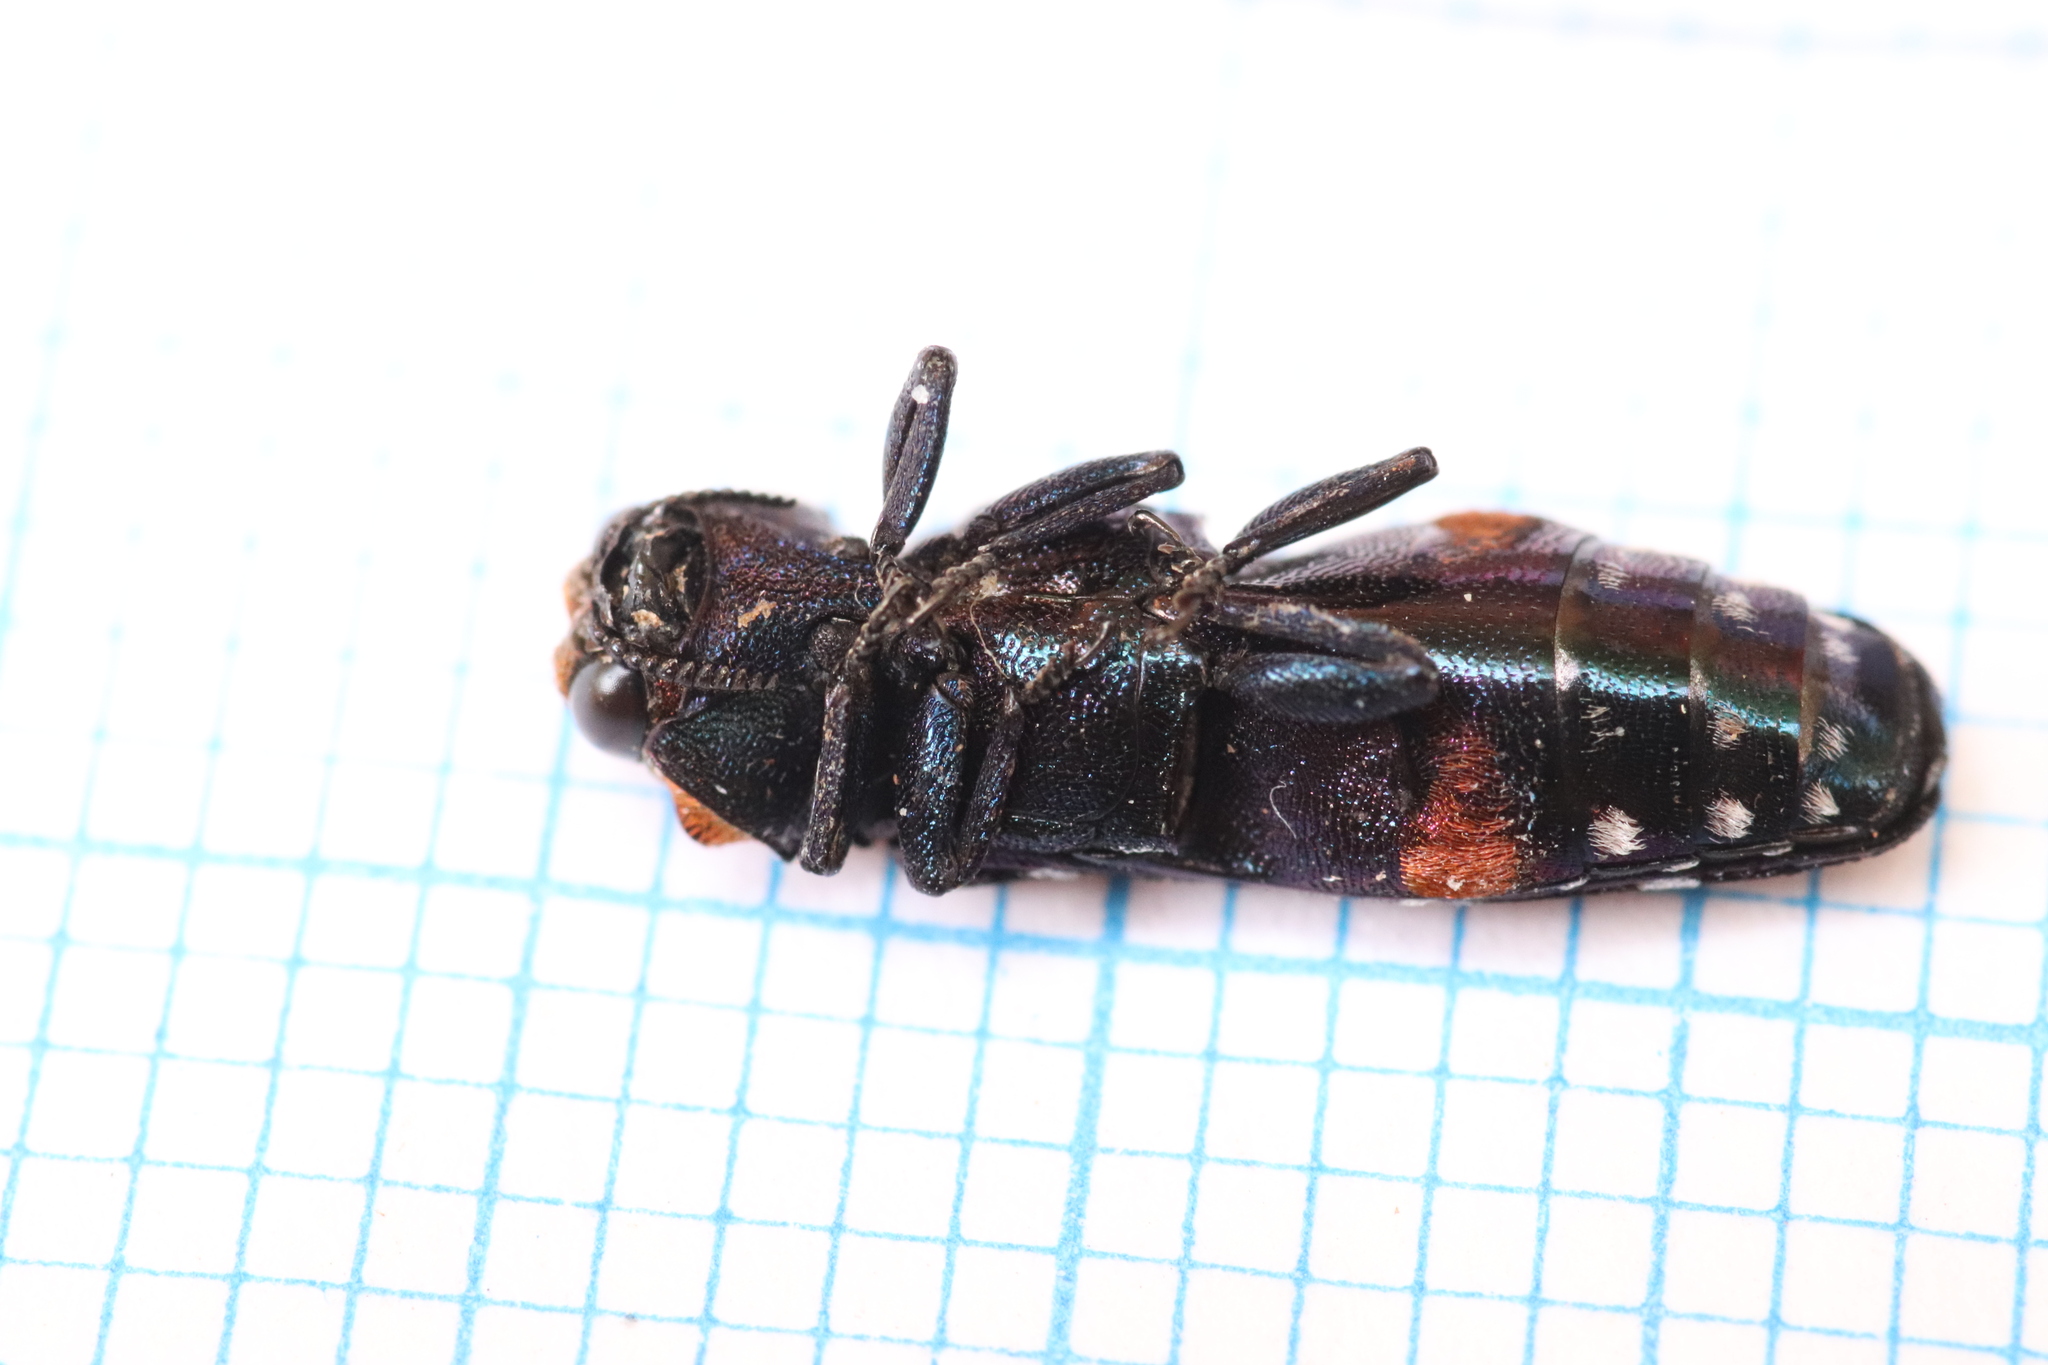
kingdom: Animalia
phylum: Arthropoda
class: Insecta
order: Coleoptera
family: Buprestidae
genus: Anaphlocteis
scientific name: Anaphlocteis pulchrus
